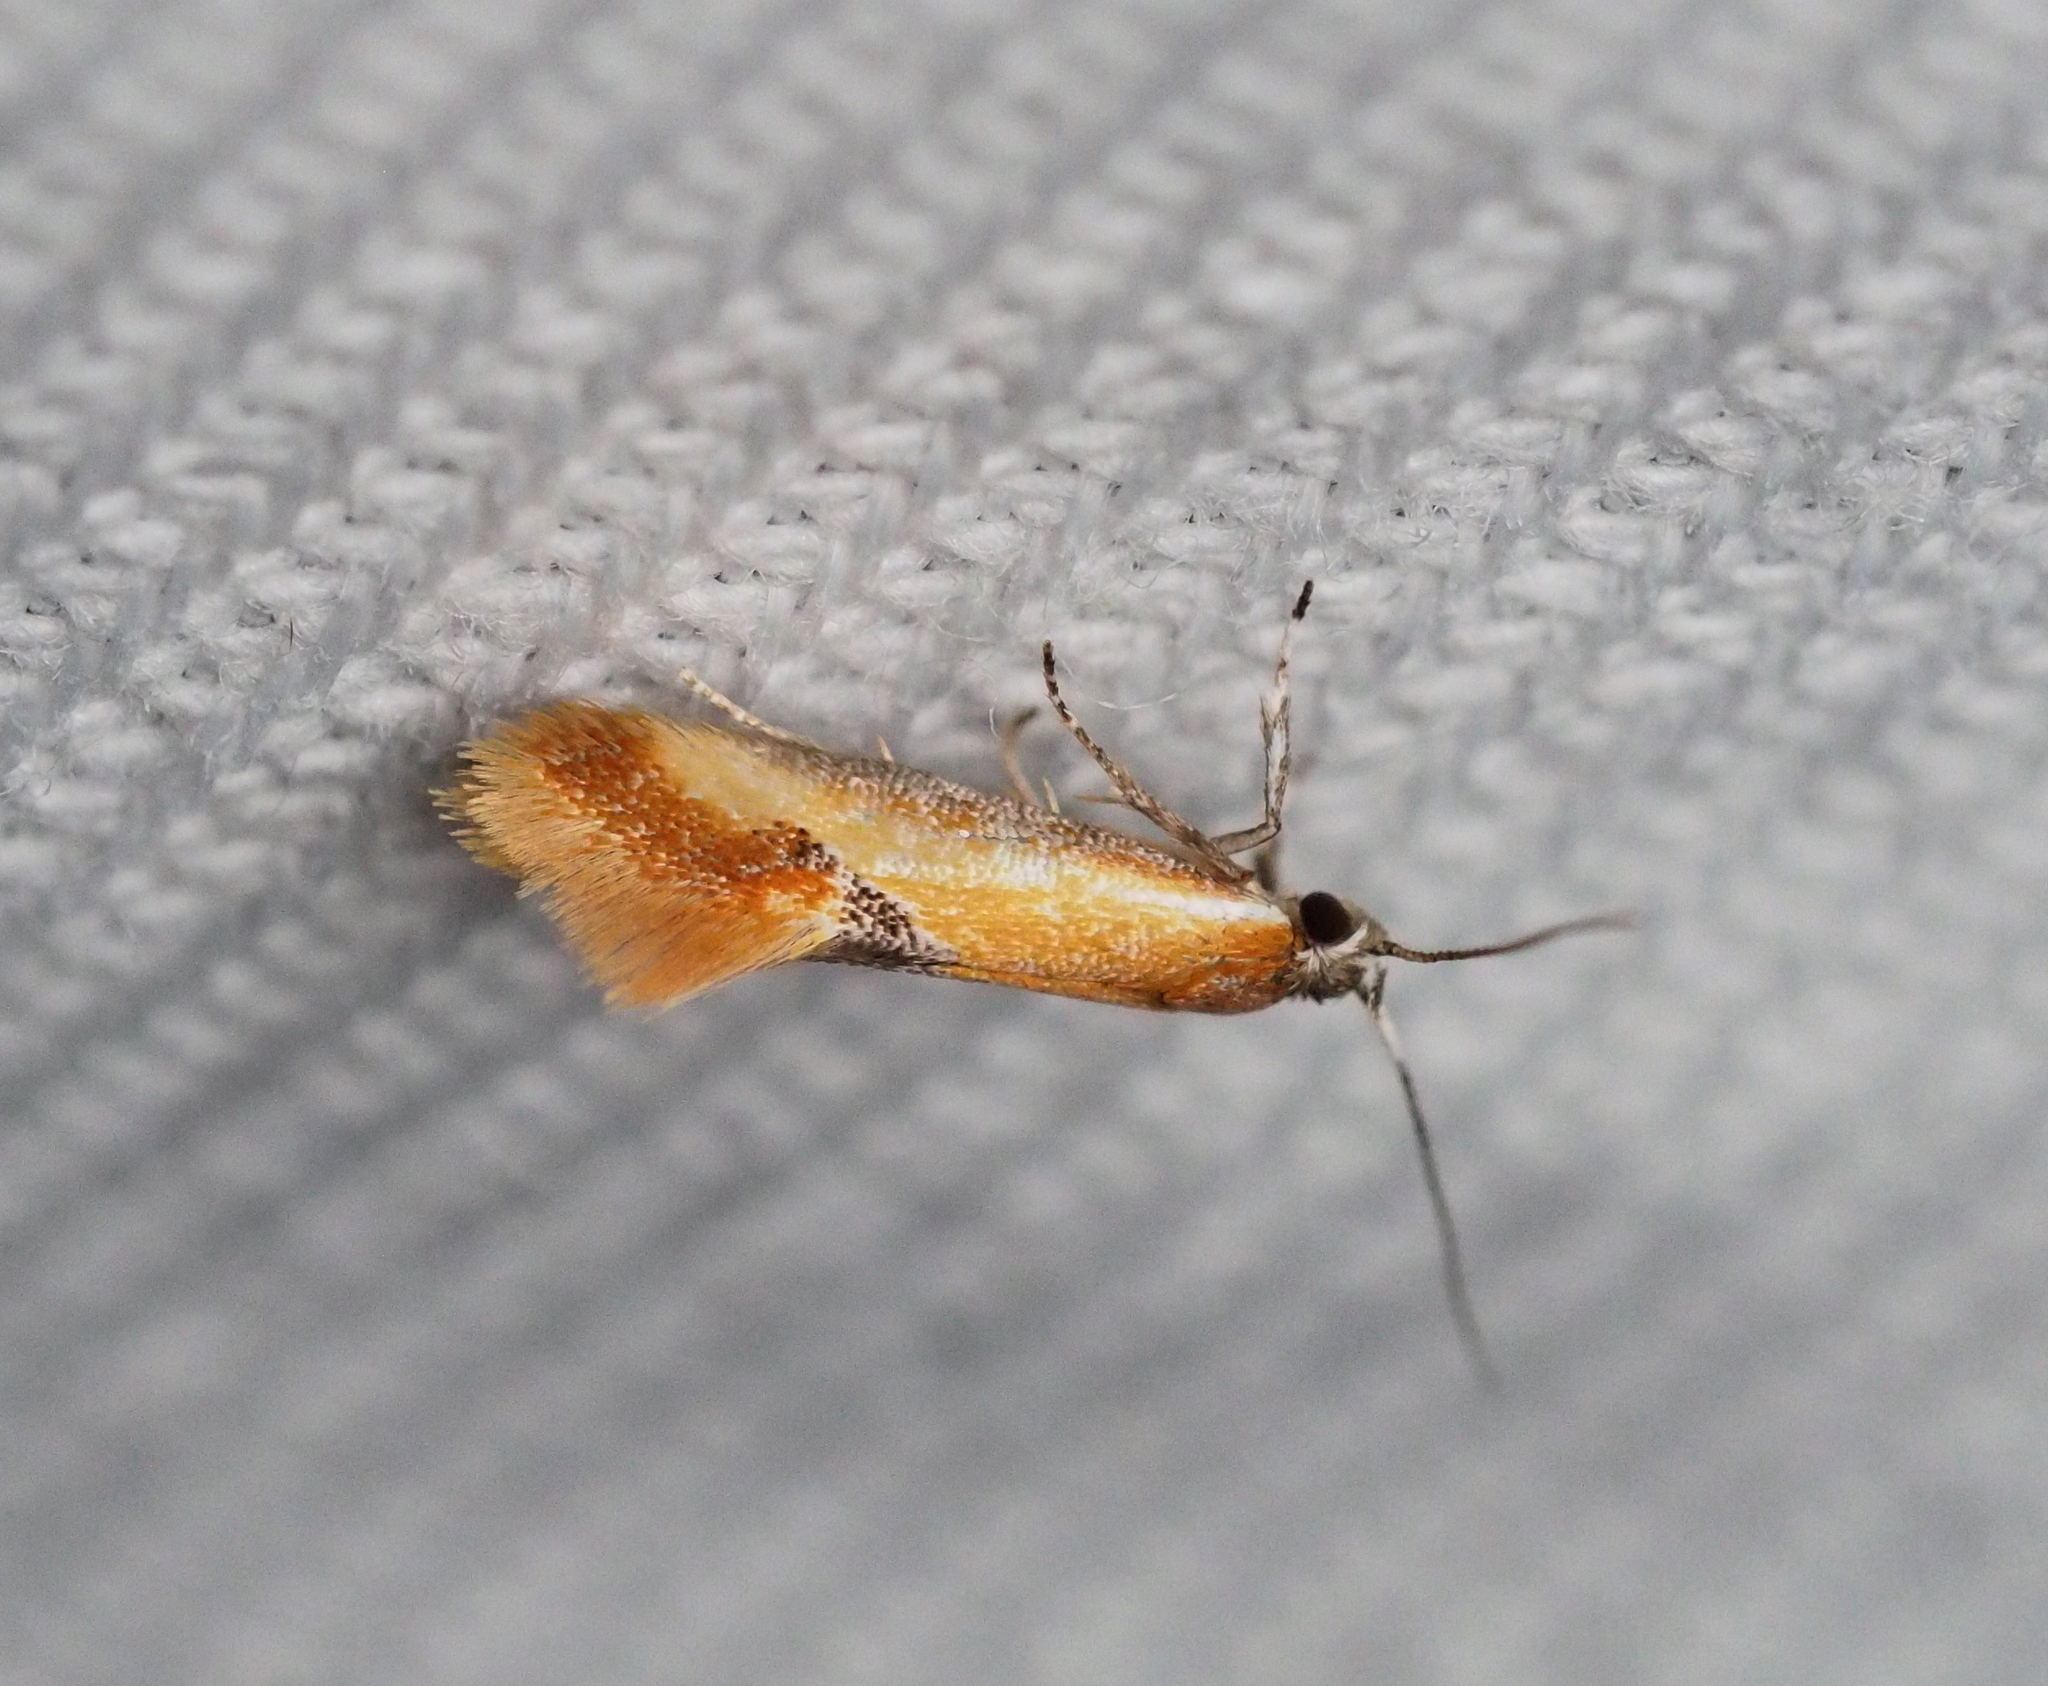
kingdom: Animalia
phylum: Arthropoda
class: Insecta
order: Lepidoptera
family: Oecophoridae
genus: Batia
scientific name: Batia lunaris
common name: Moth
